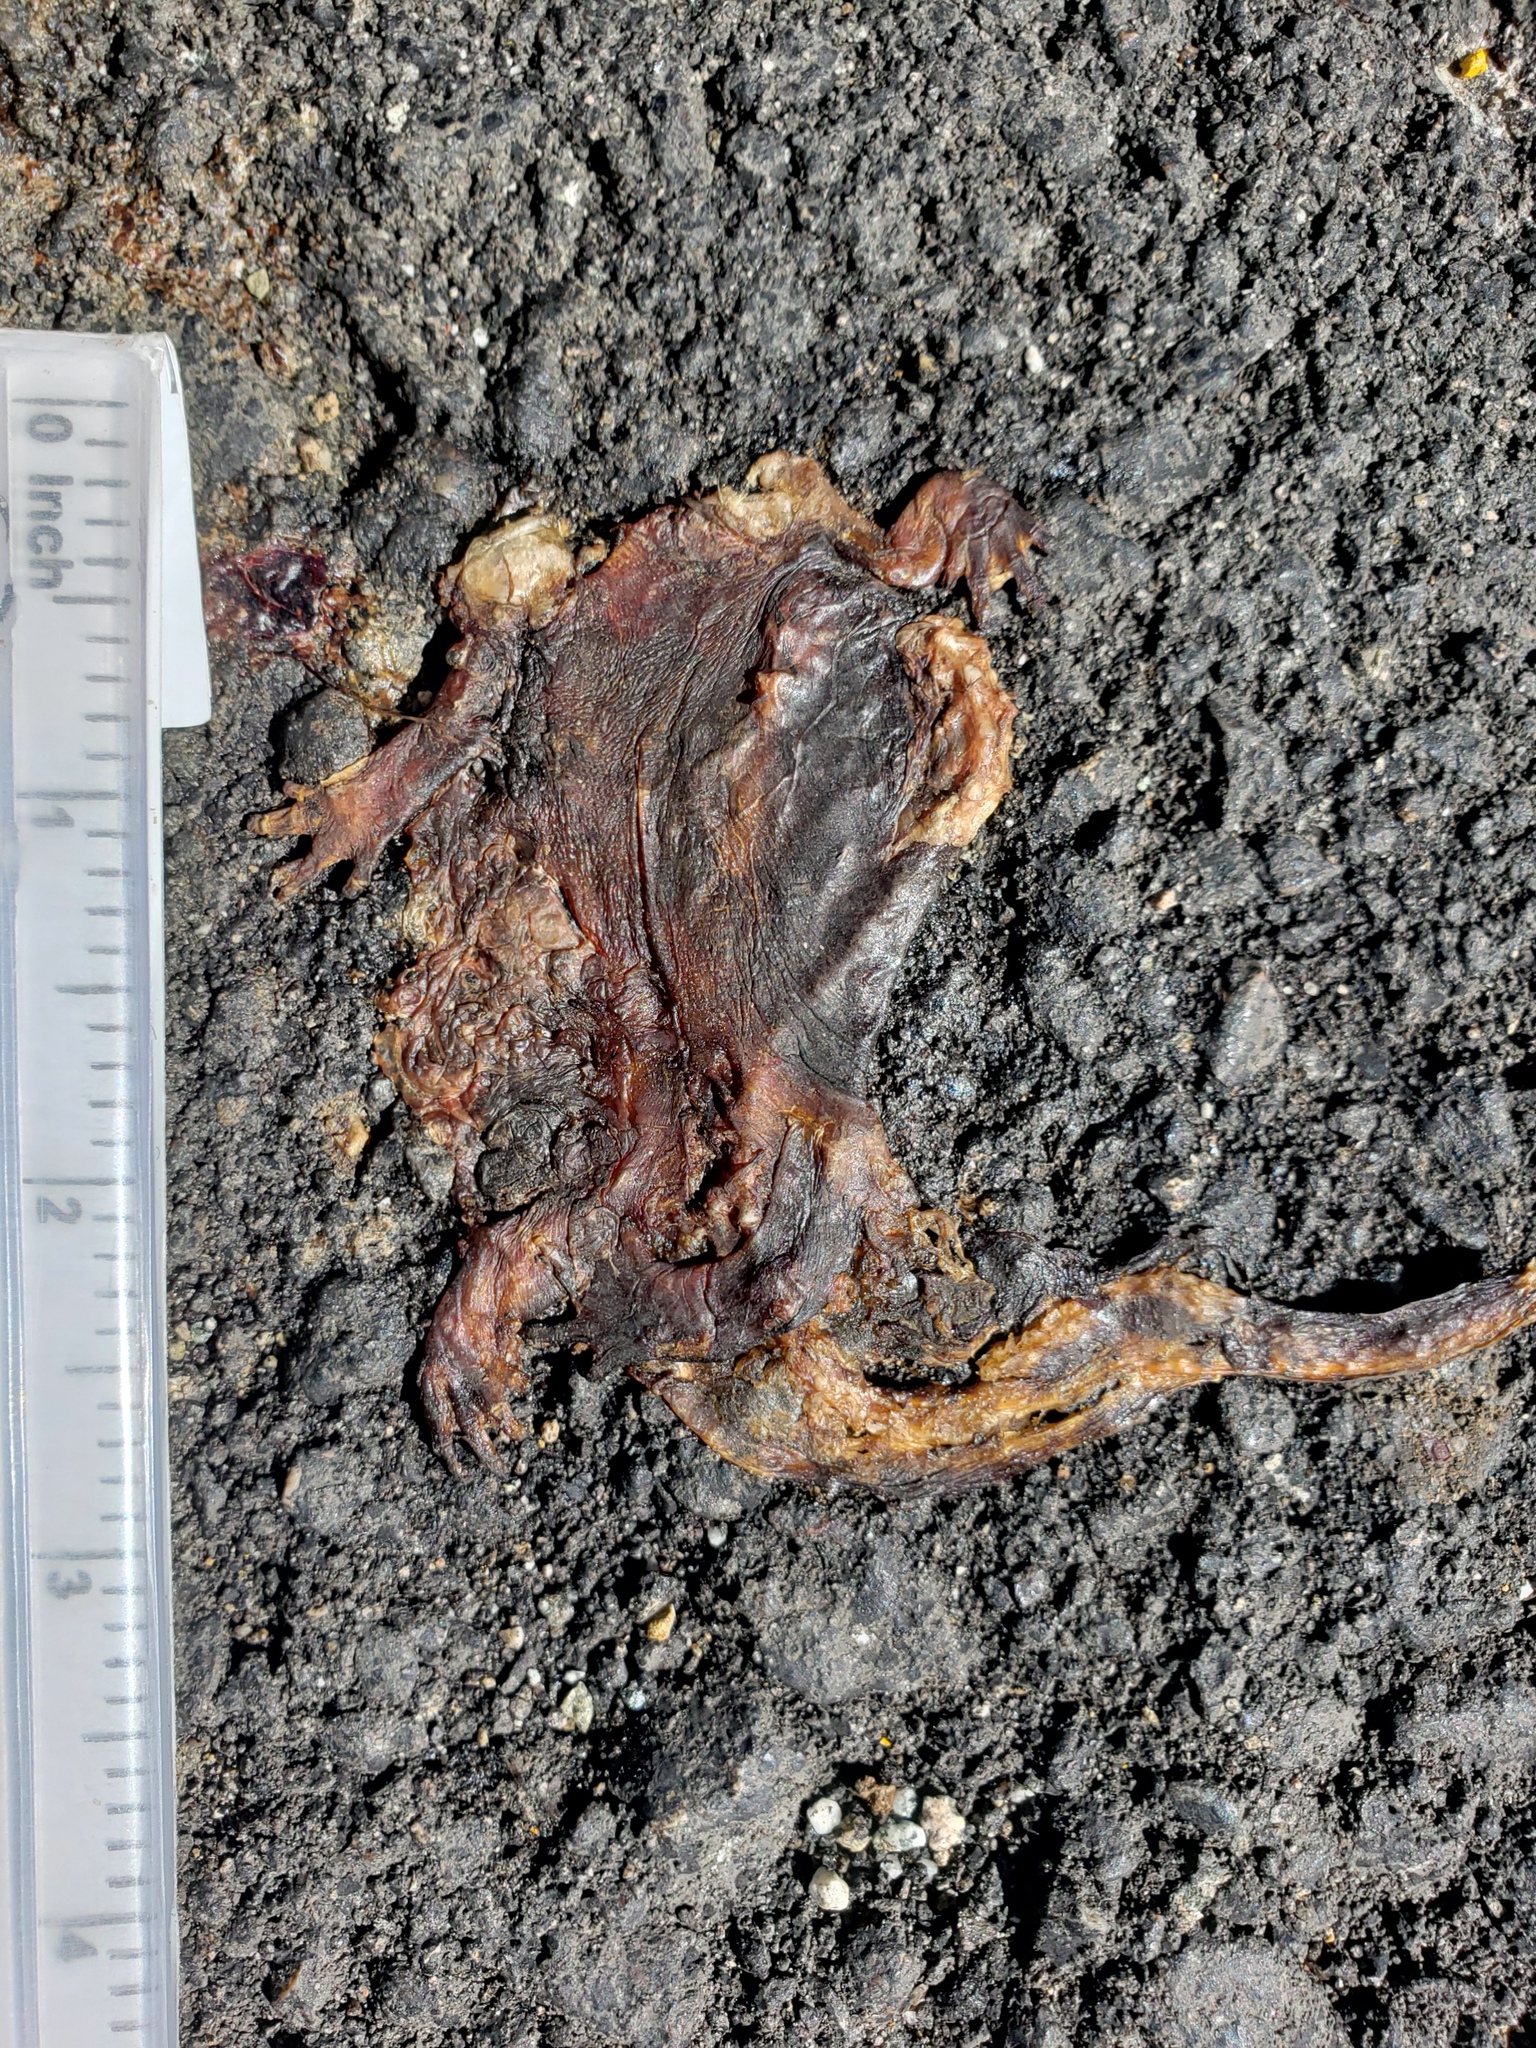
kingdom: Animalia
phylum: Chordata
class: Amphibia
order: Caudata
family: Salamandridae
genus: Taricha
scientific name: Taricha
